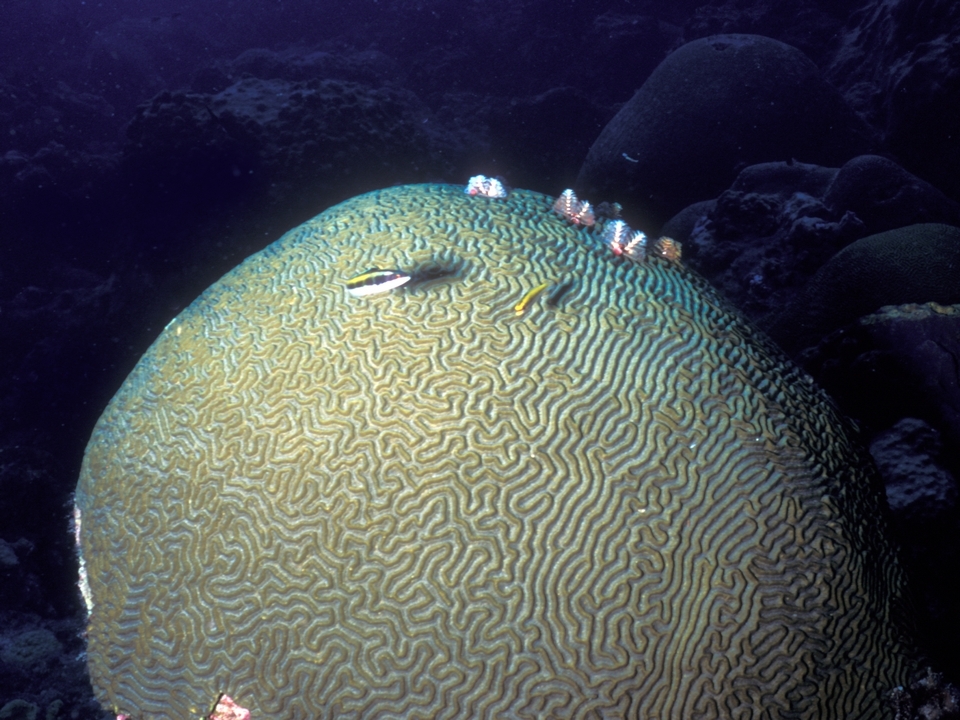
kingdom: Animalia
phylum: Chordata
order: Perciformes
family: Labridae
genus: Thalassoma
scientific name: Thalassoma bifasciatum
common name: Bluehead wrasse
